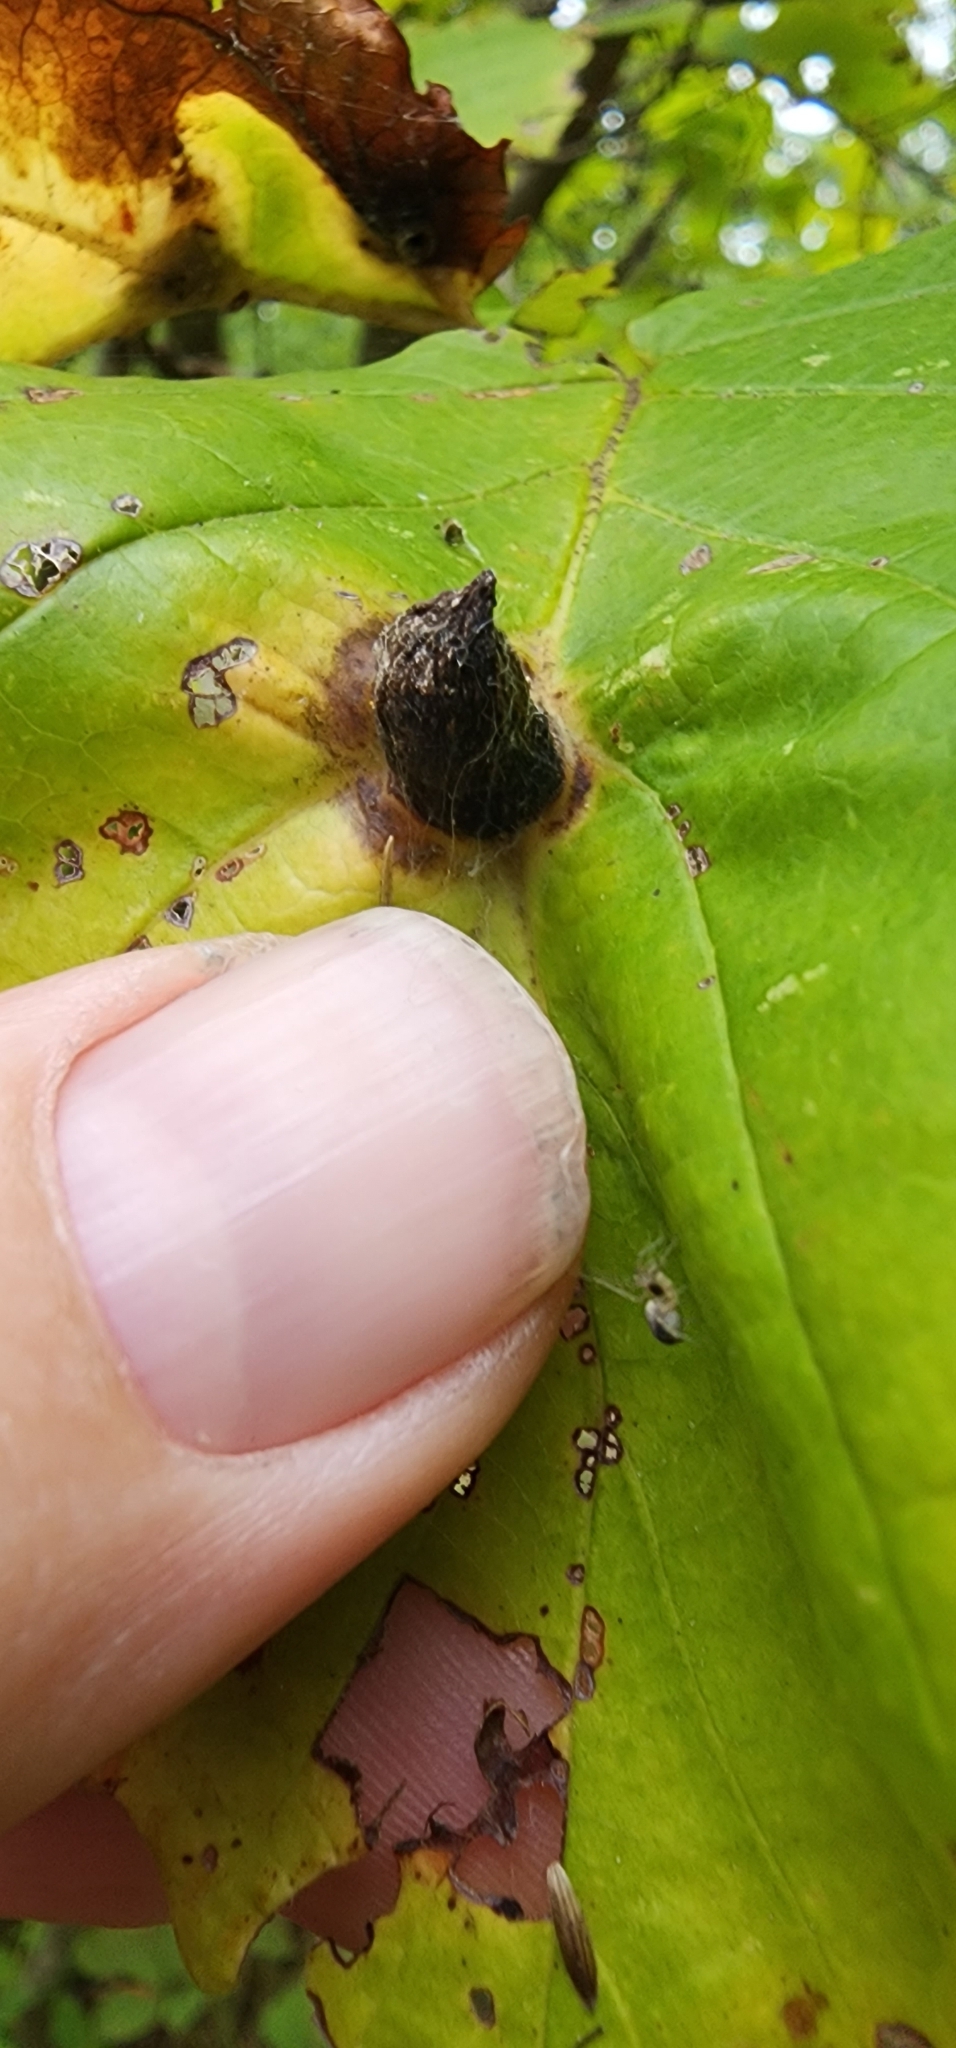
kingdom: Animalia
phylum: Arthropoda
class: Insecta
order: Hemiptera
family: Aphididae
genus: Hormaphis
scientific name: Hormaphis hamamelidis
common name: Witch-hazel cone gall aphid
